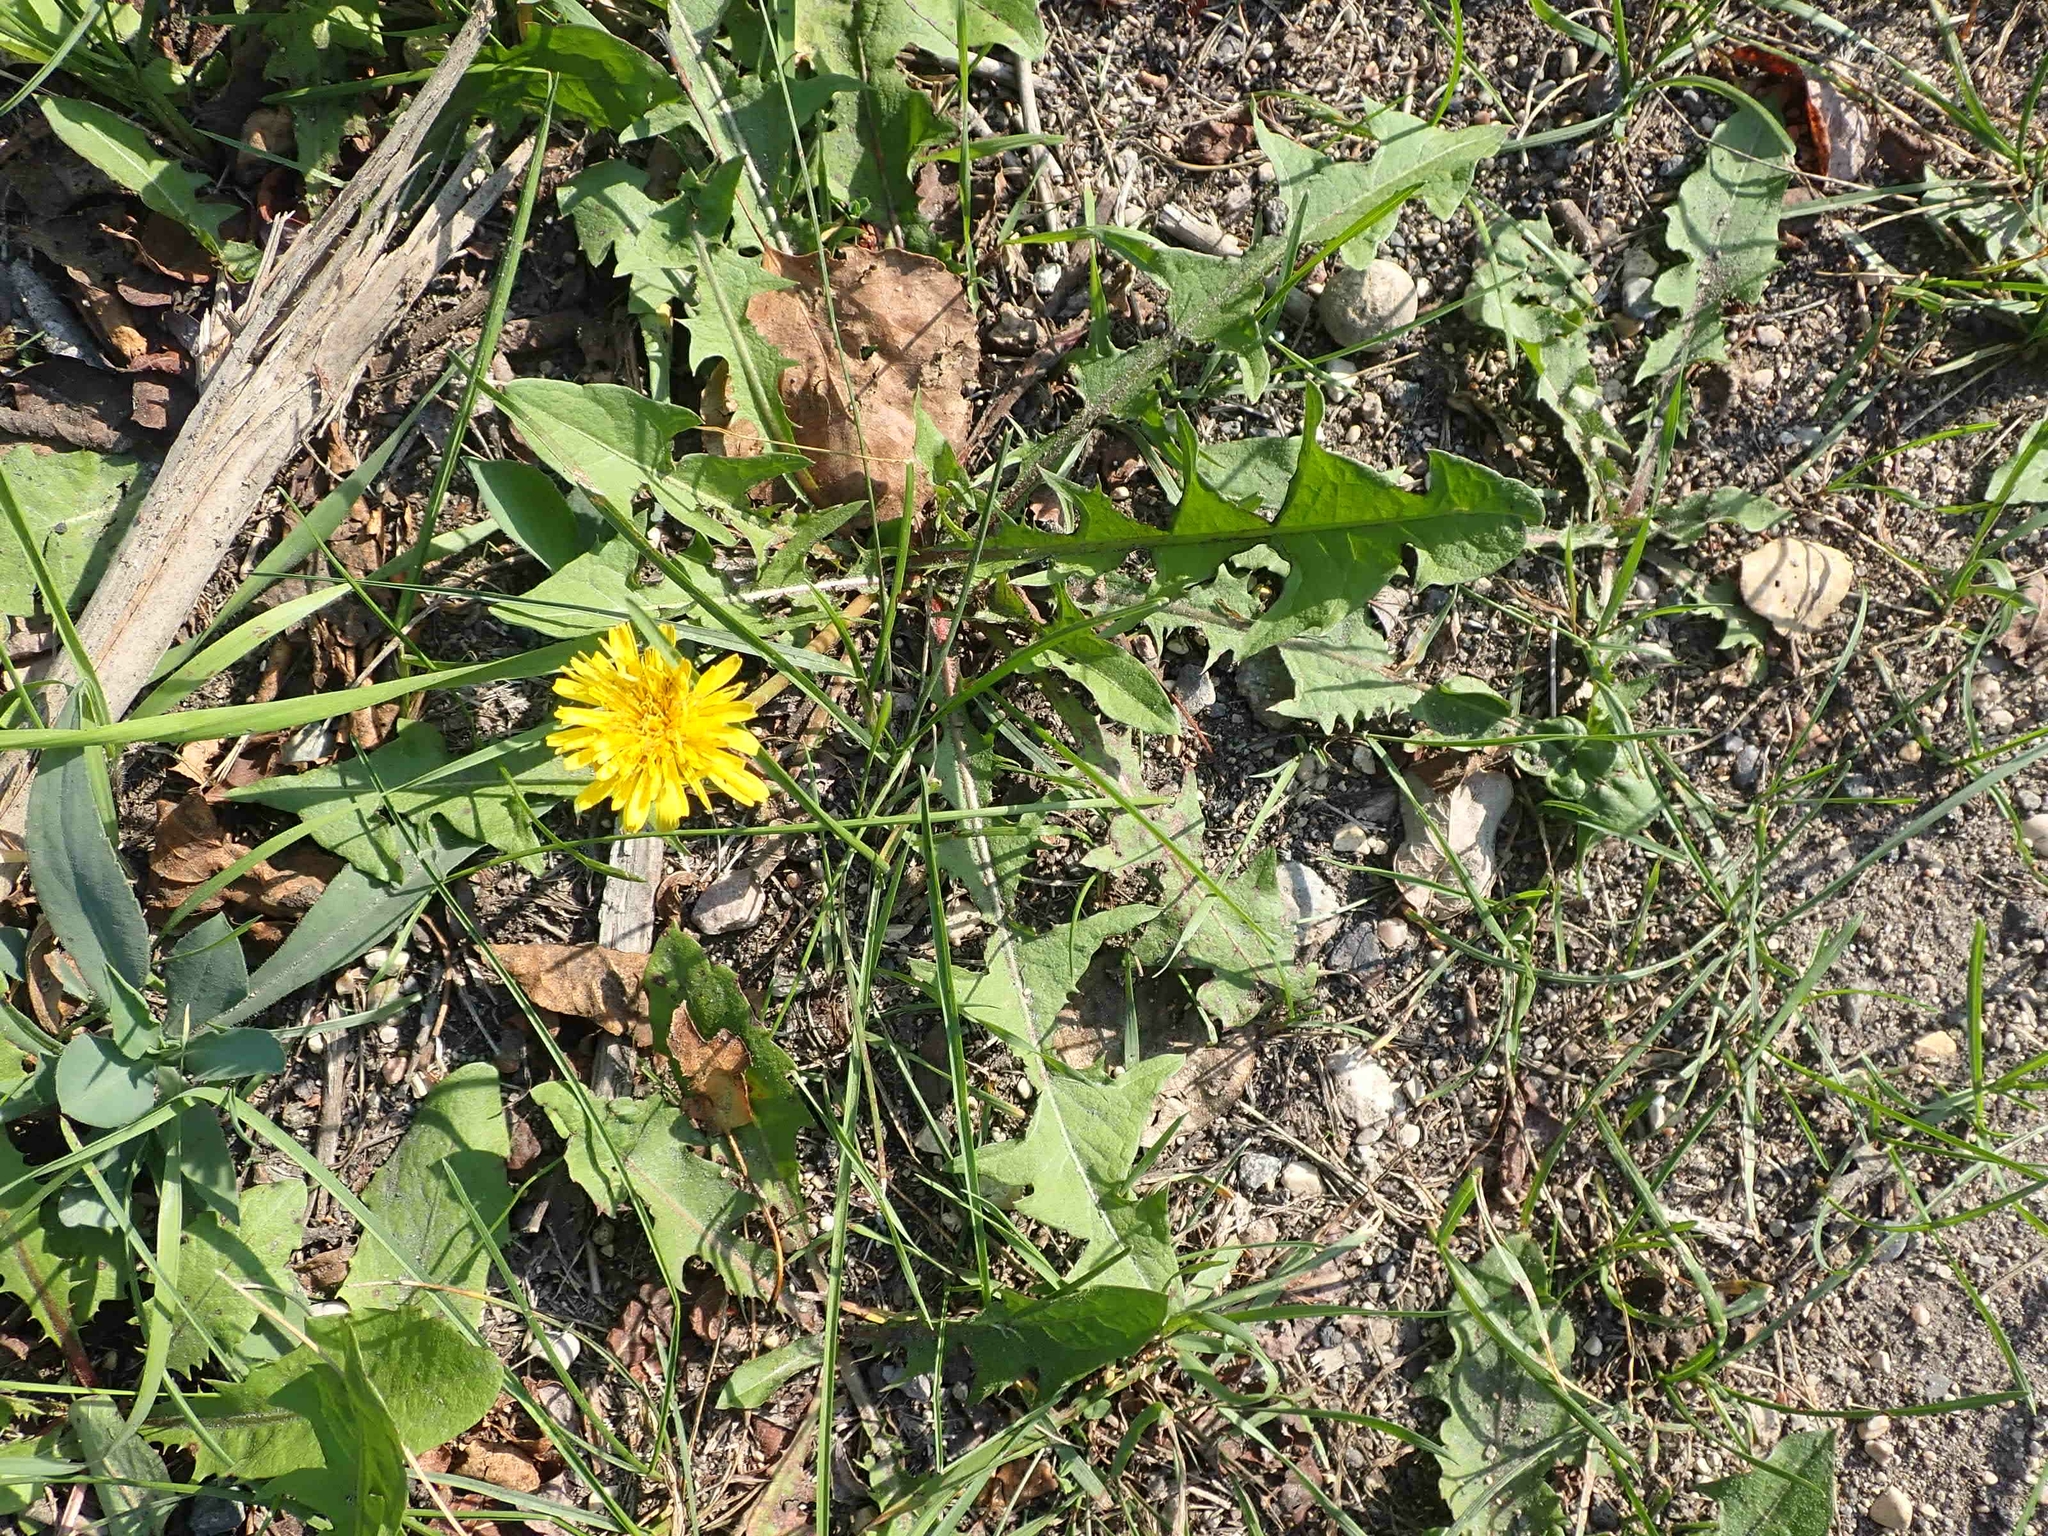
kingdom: Plantae
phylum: Tracheophyta
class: Magnoliopsida
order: Asterales
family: Asteraceae
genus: Taraxacum
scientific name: Taraxacum officinale
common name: Common dandelion
